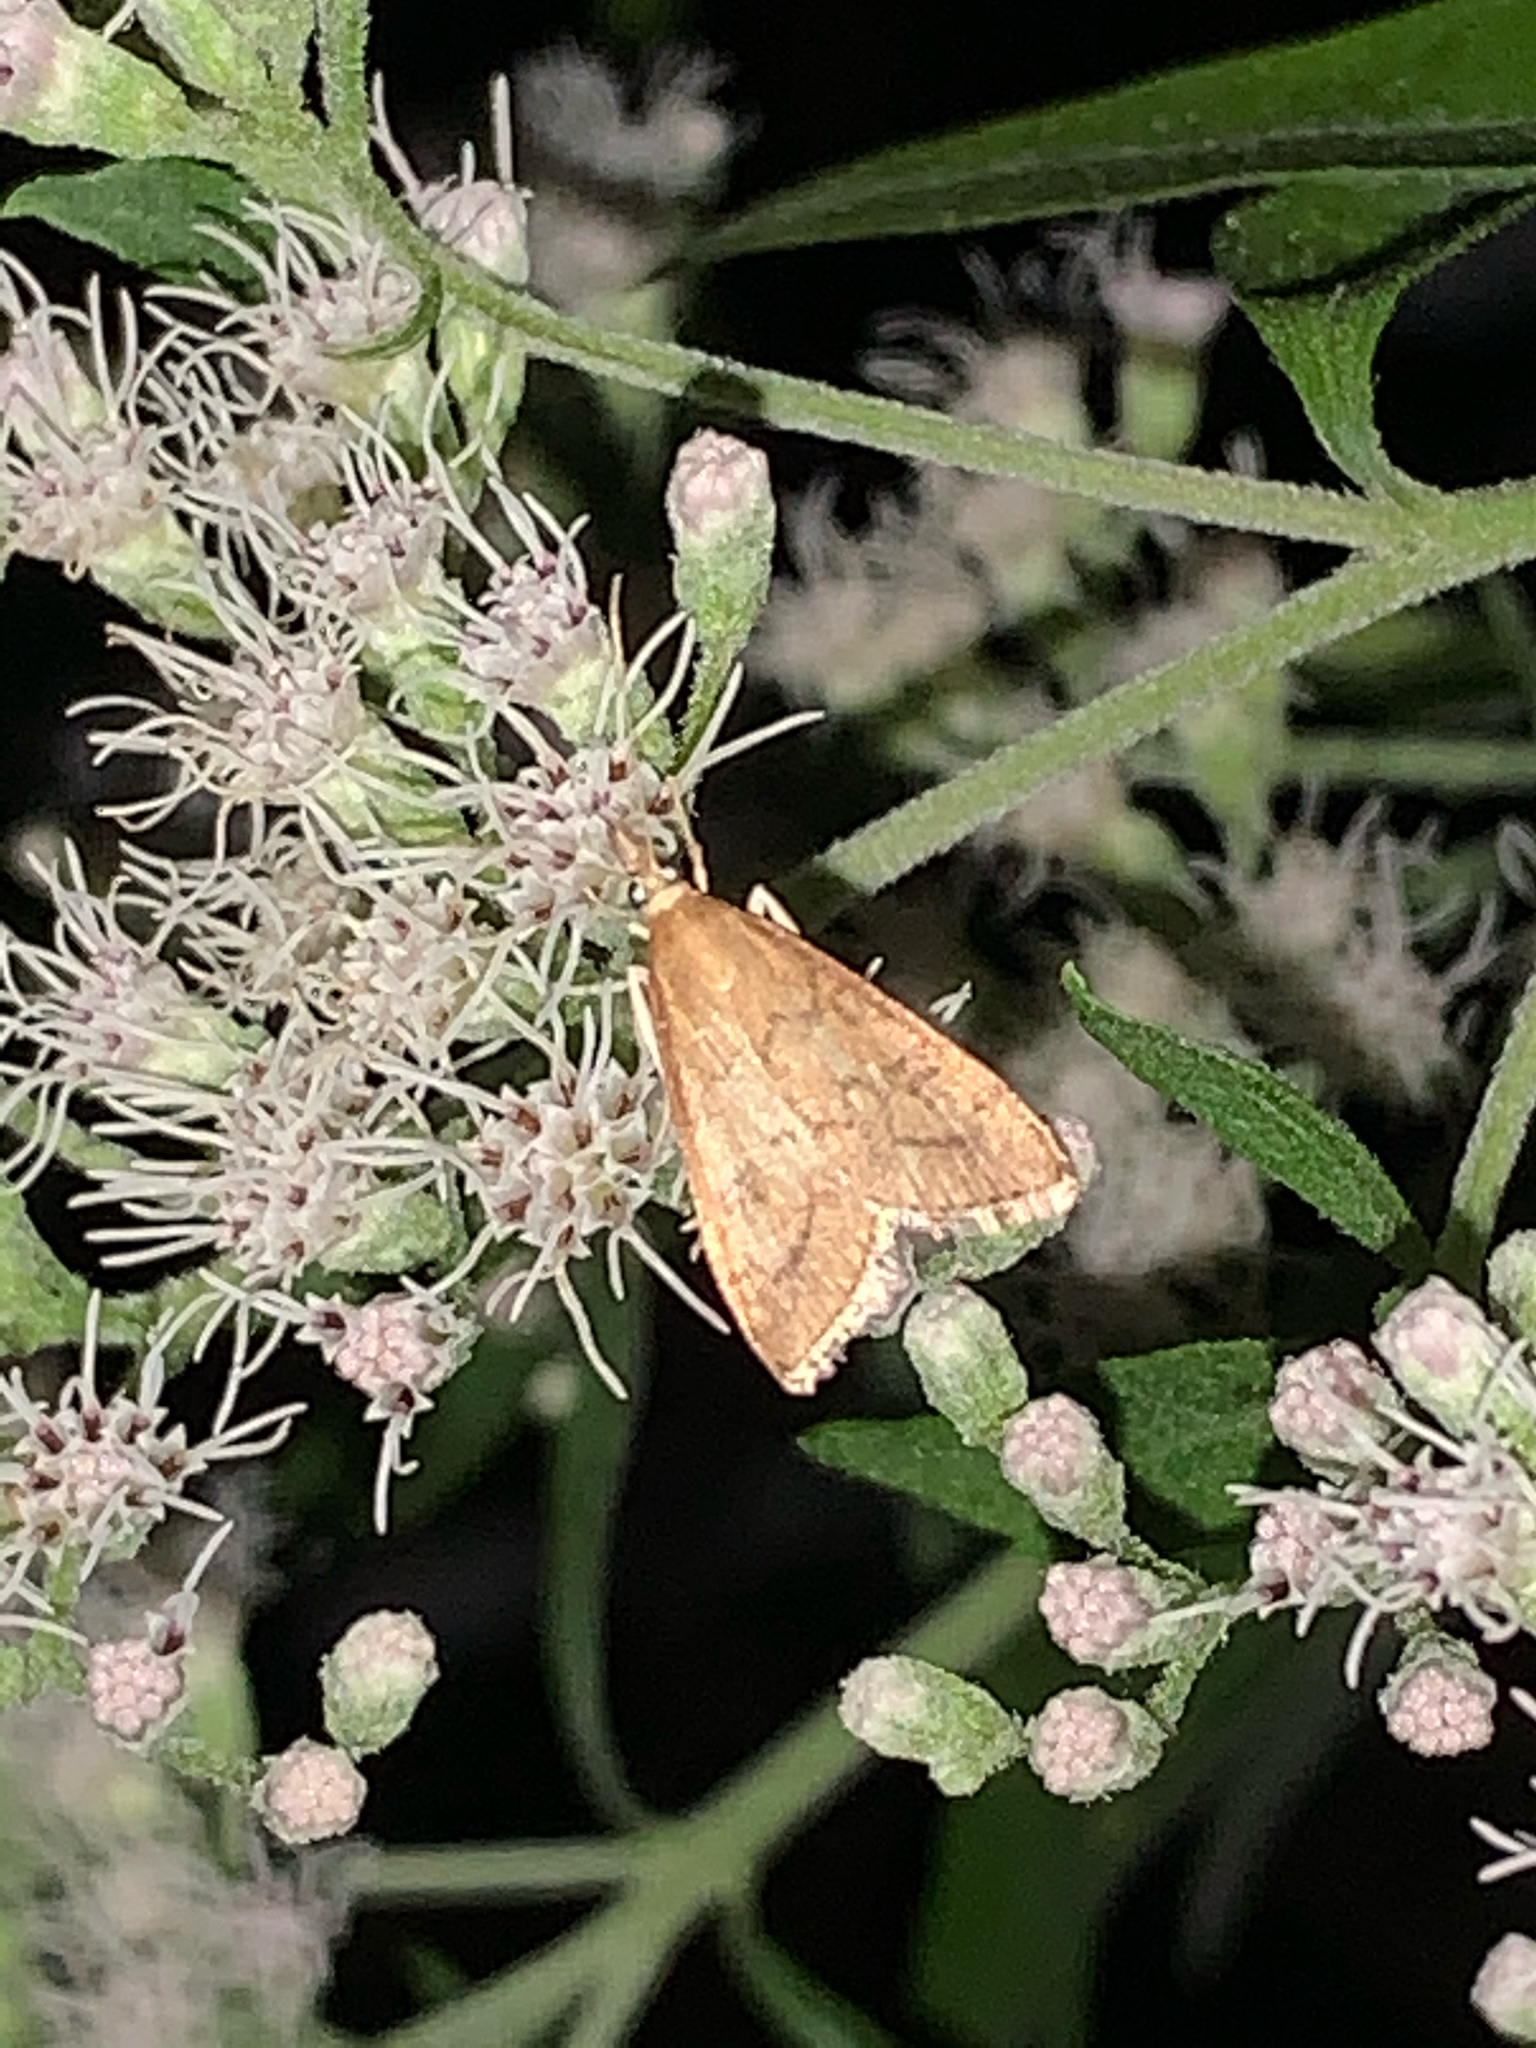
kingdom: Animalia
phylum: Arthropoda
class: Insecta
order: Lepidoptera
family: Crambidae
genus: Udea
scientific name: Udea rubigalis
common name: Celery leaftier moth
